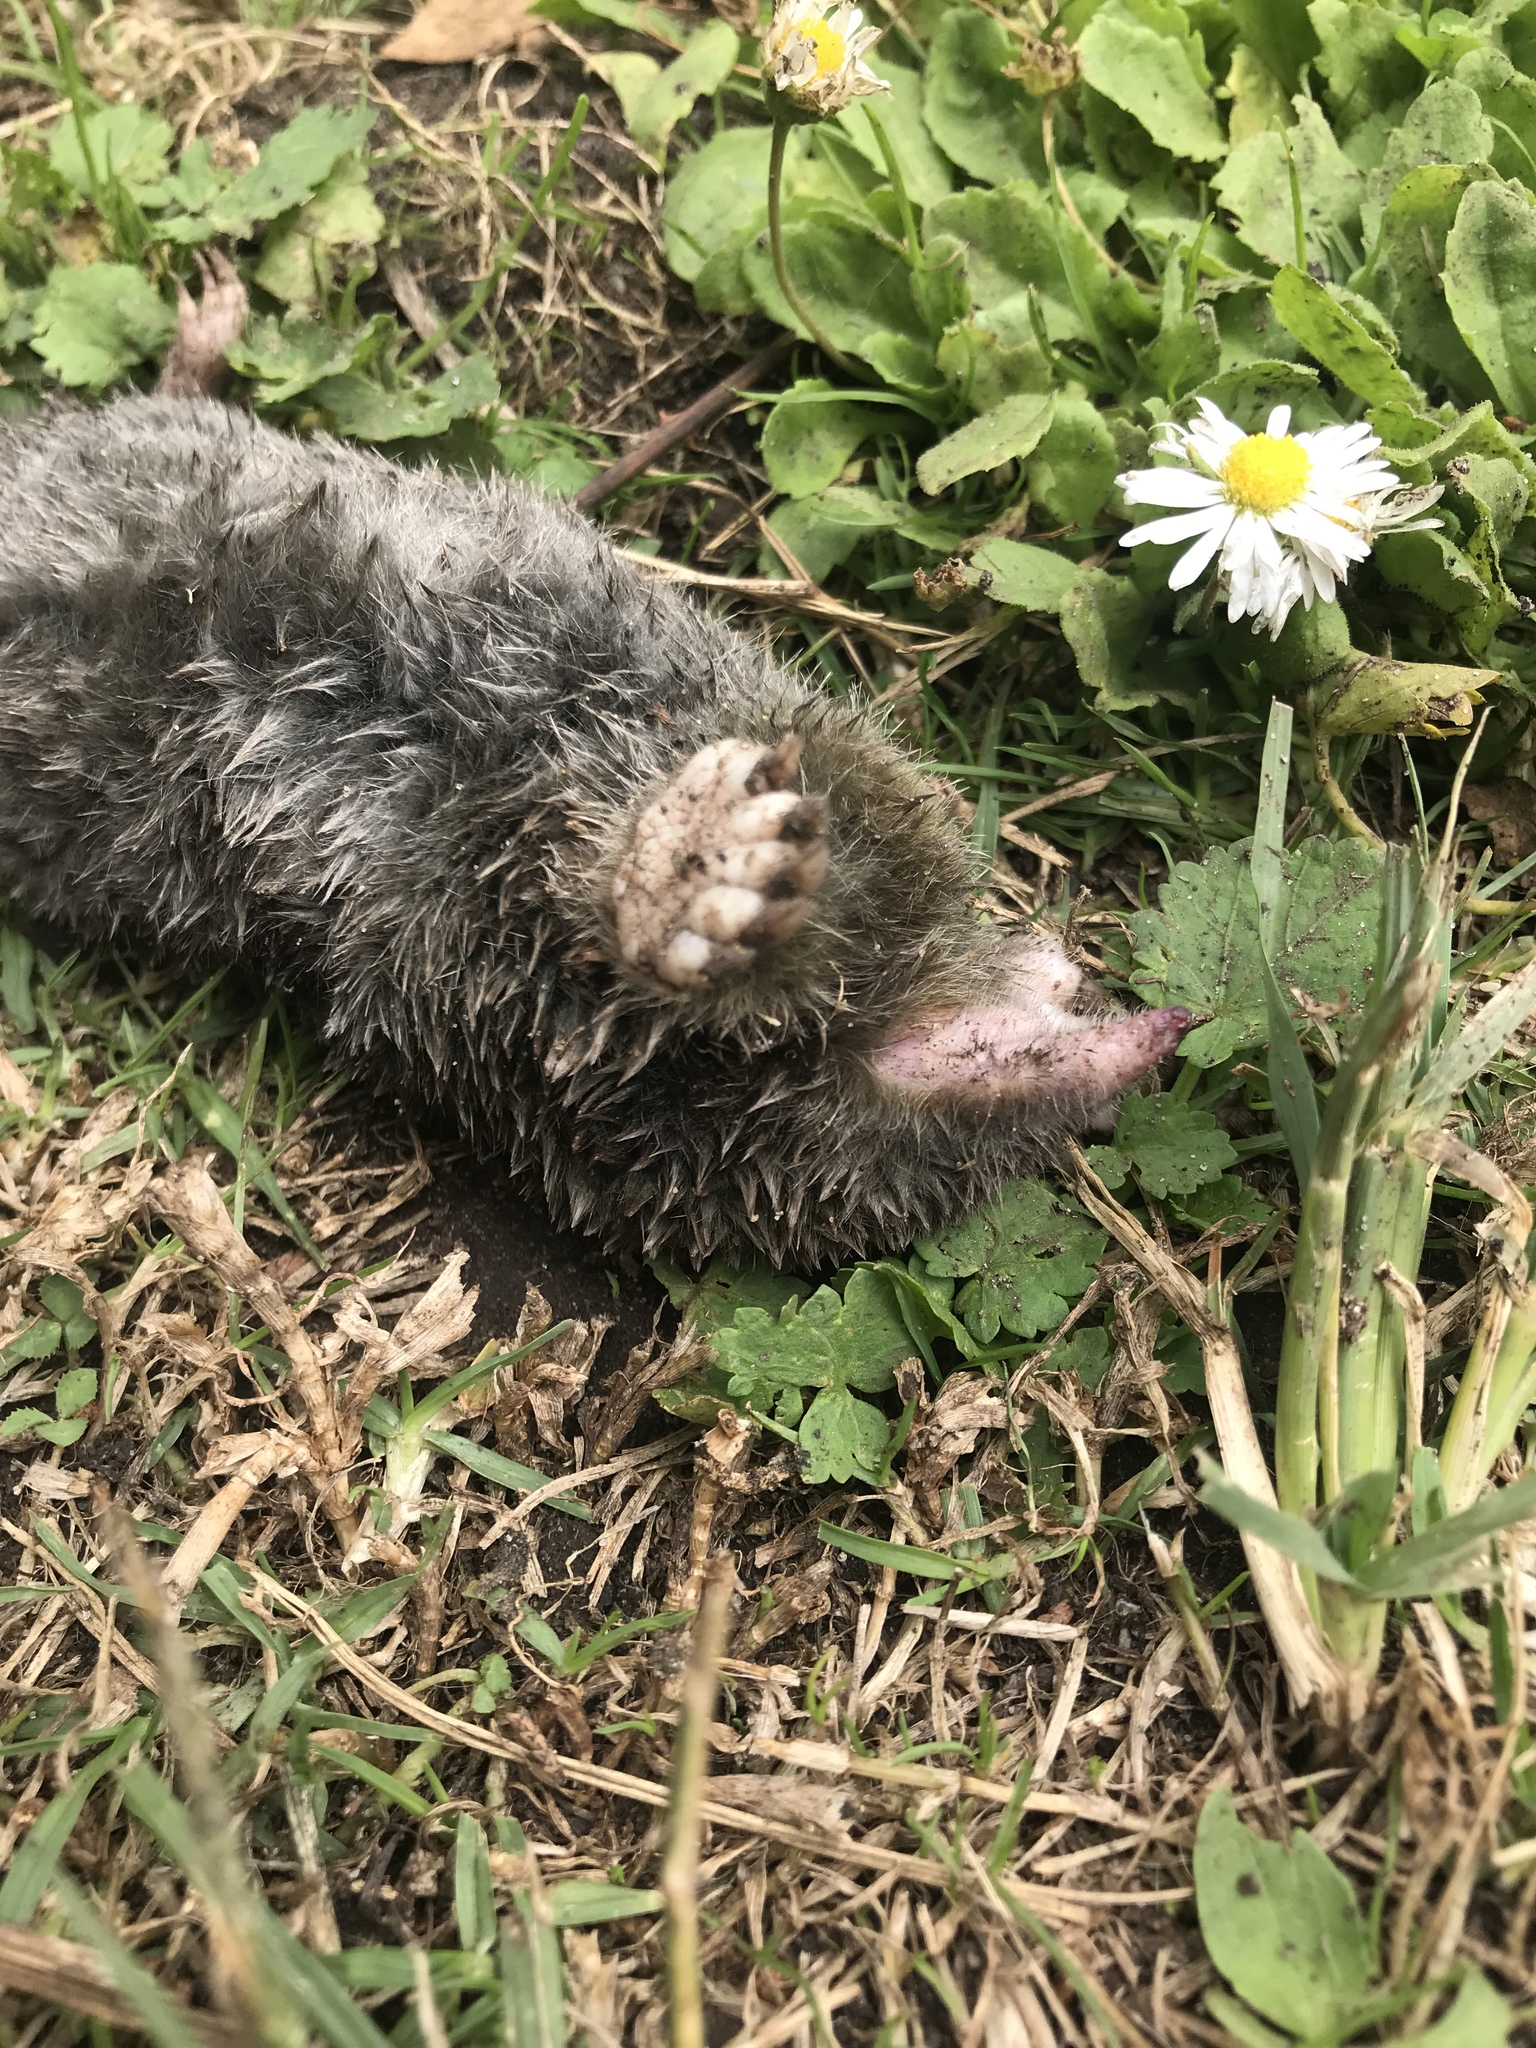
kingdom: Animalia
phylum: Chordata
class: Mammalia
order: Soricomorpha
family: Talpidae
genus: Scapanus
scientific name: Scapanus latimanus
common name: Broad-footed mole
